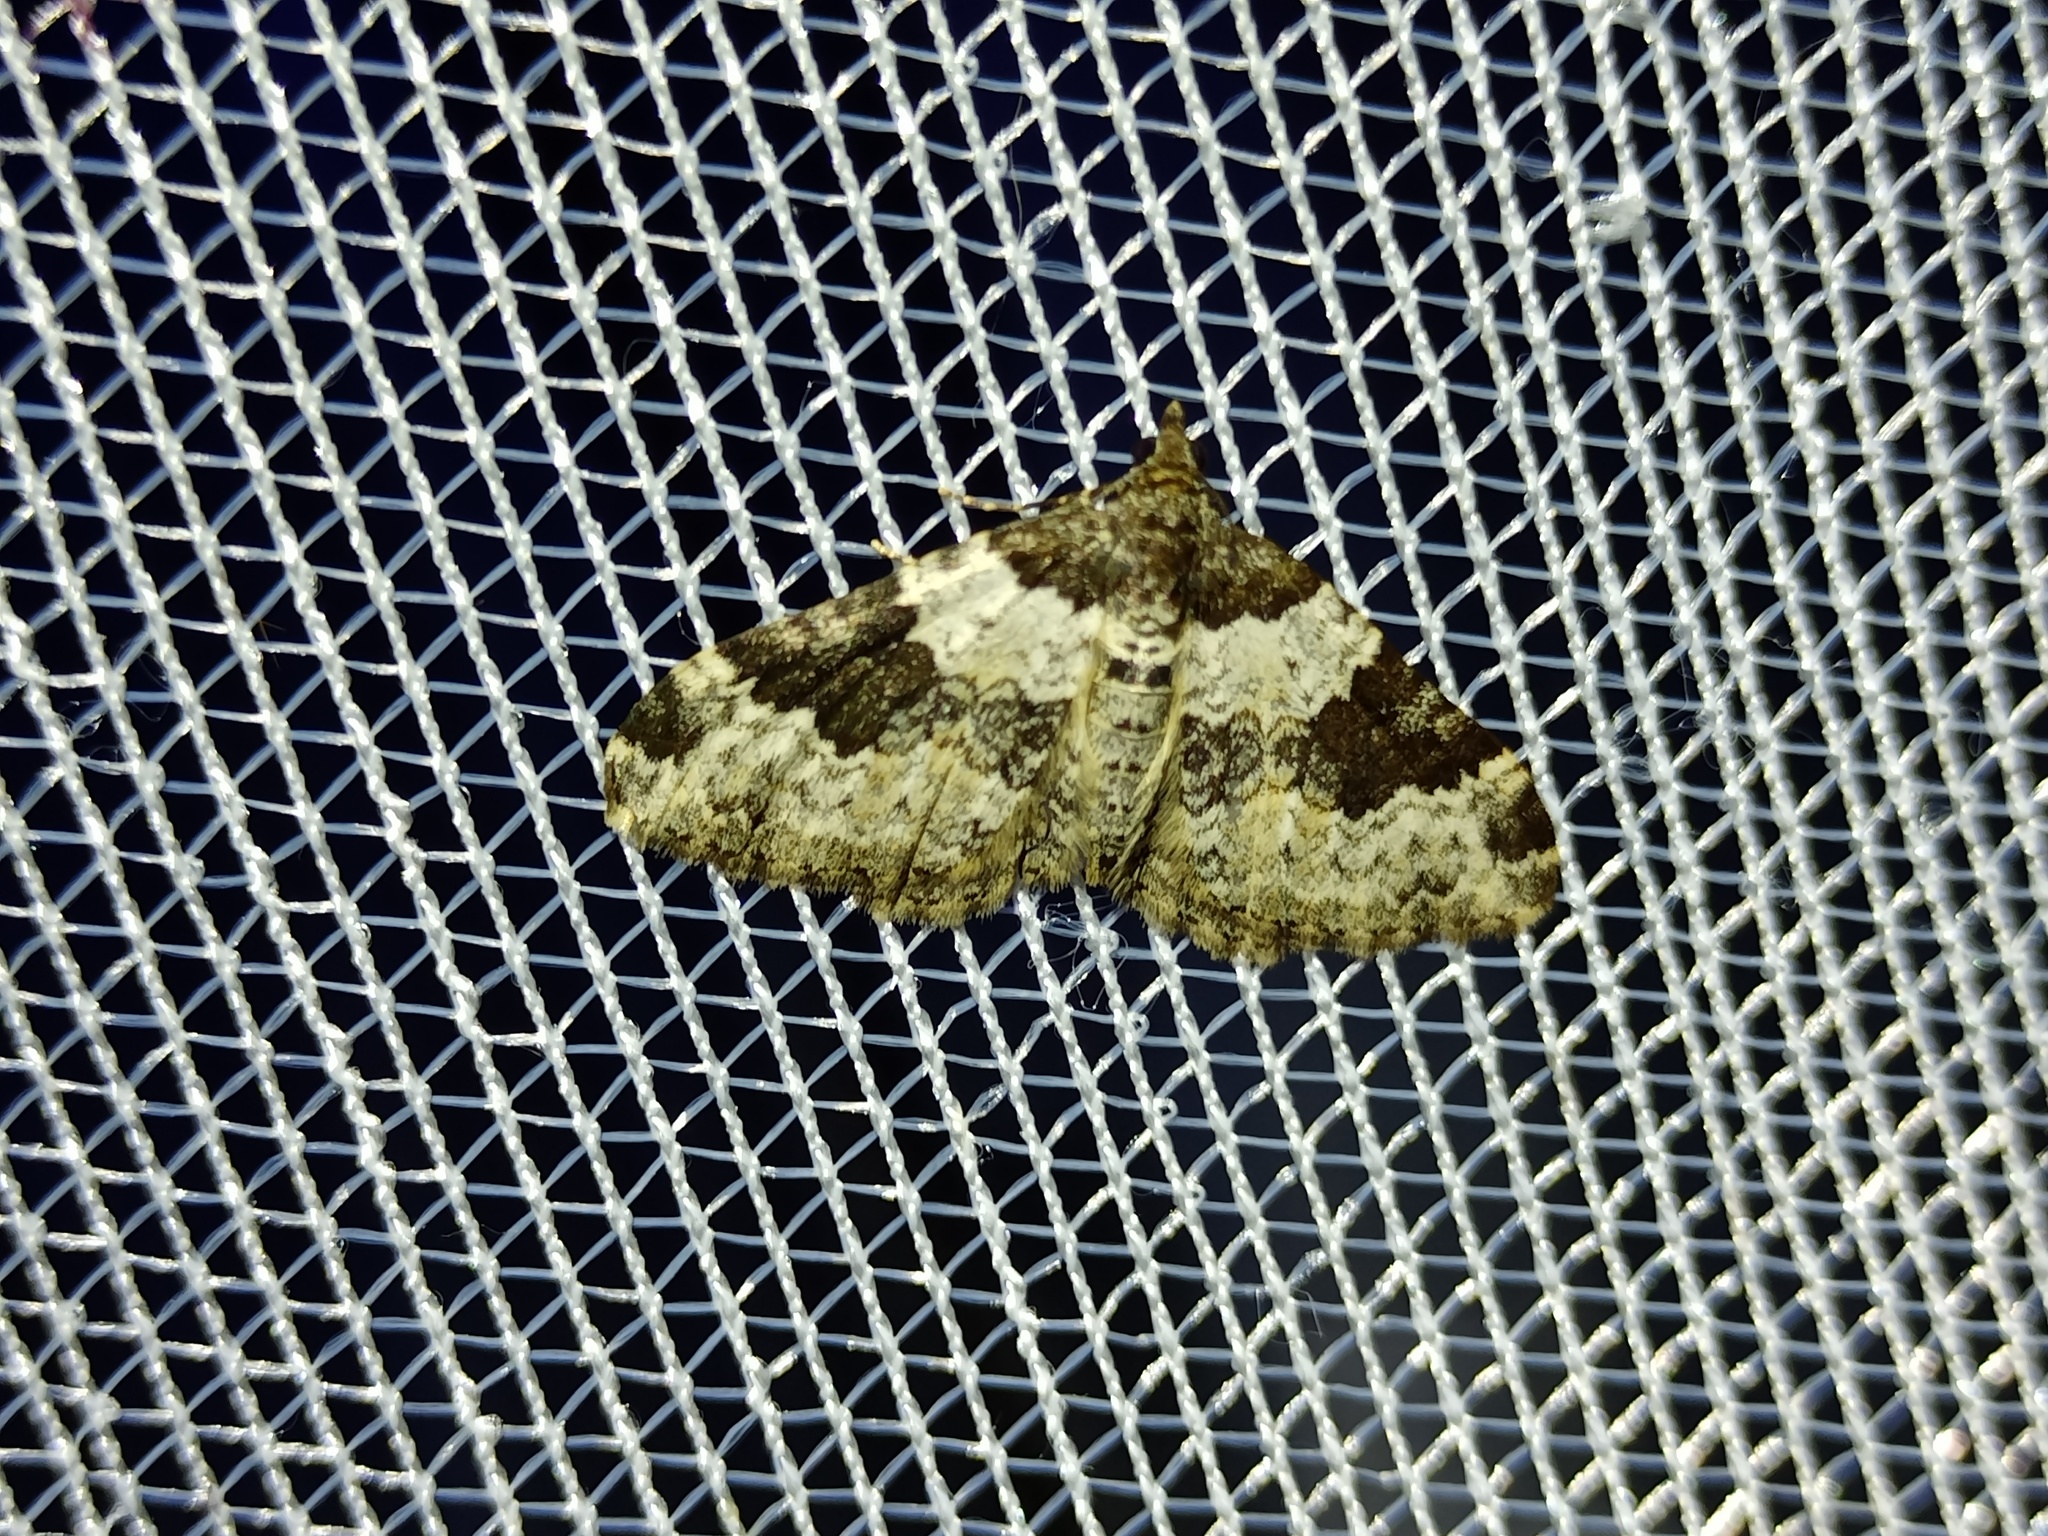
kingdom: Animalia
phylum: Arthropoda
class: Insecta
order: Lepidoptera
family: Geometridae
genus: Xanthorhoe
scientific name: Xanthorhoe fluctuata
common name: Garden carpet
